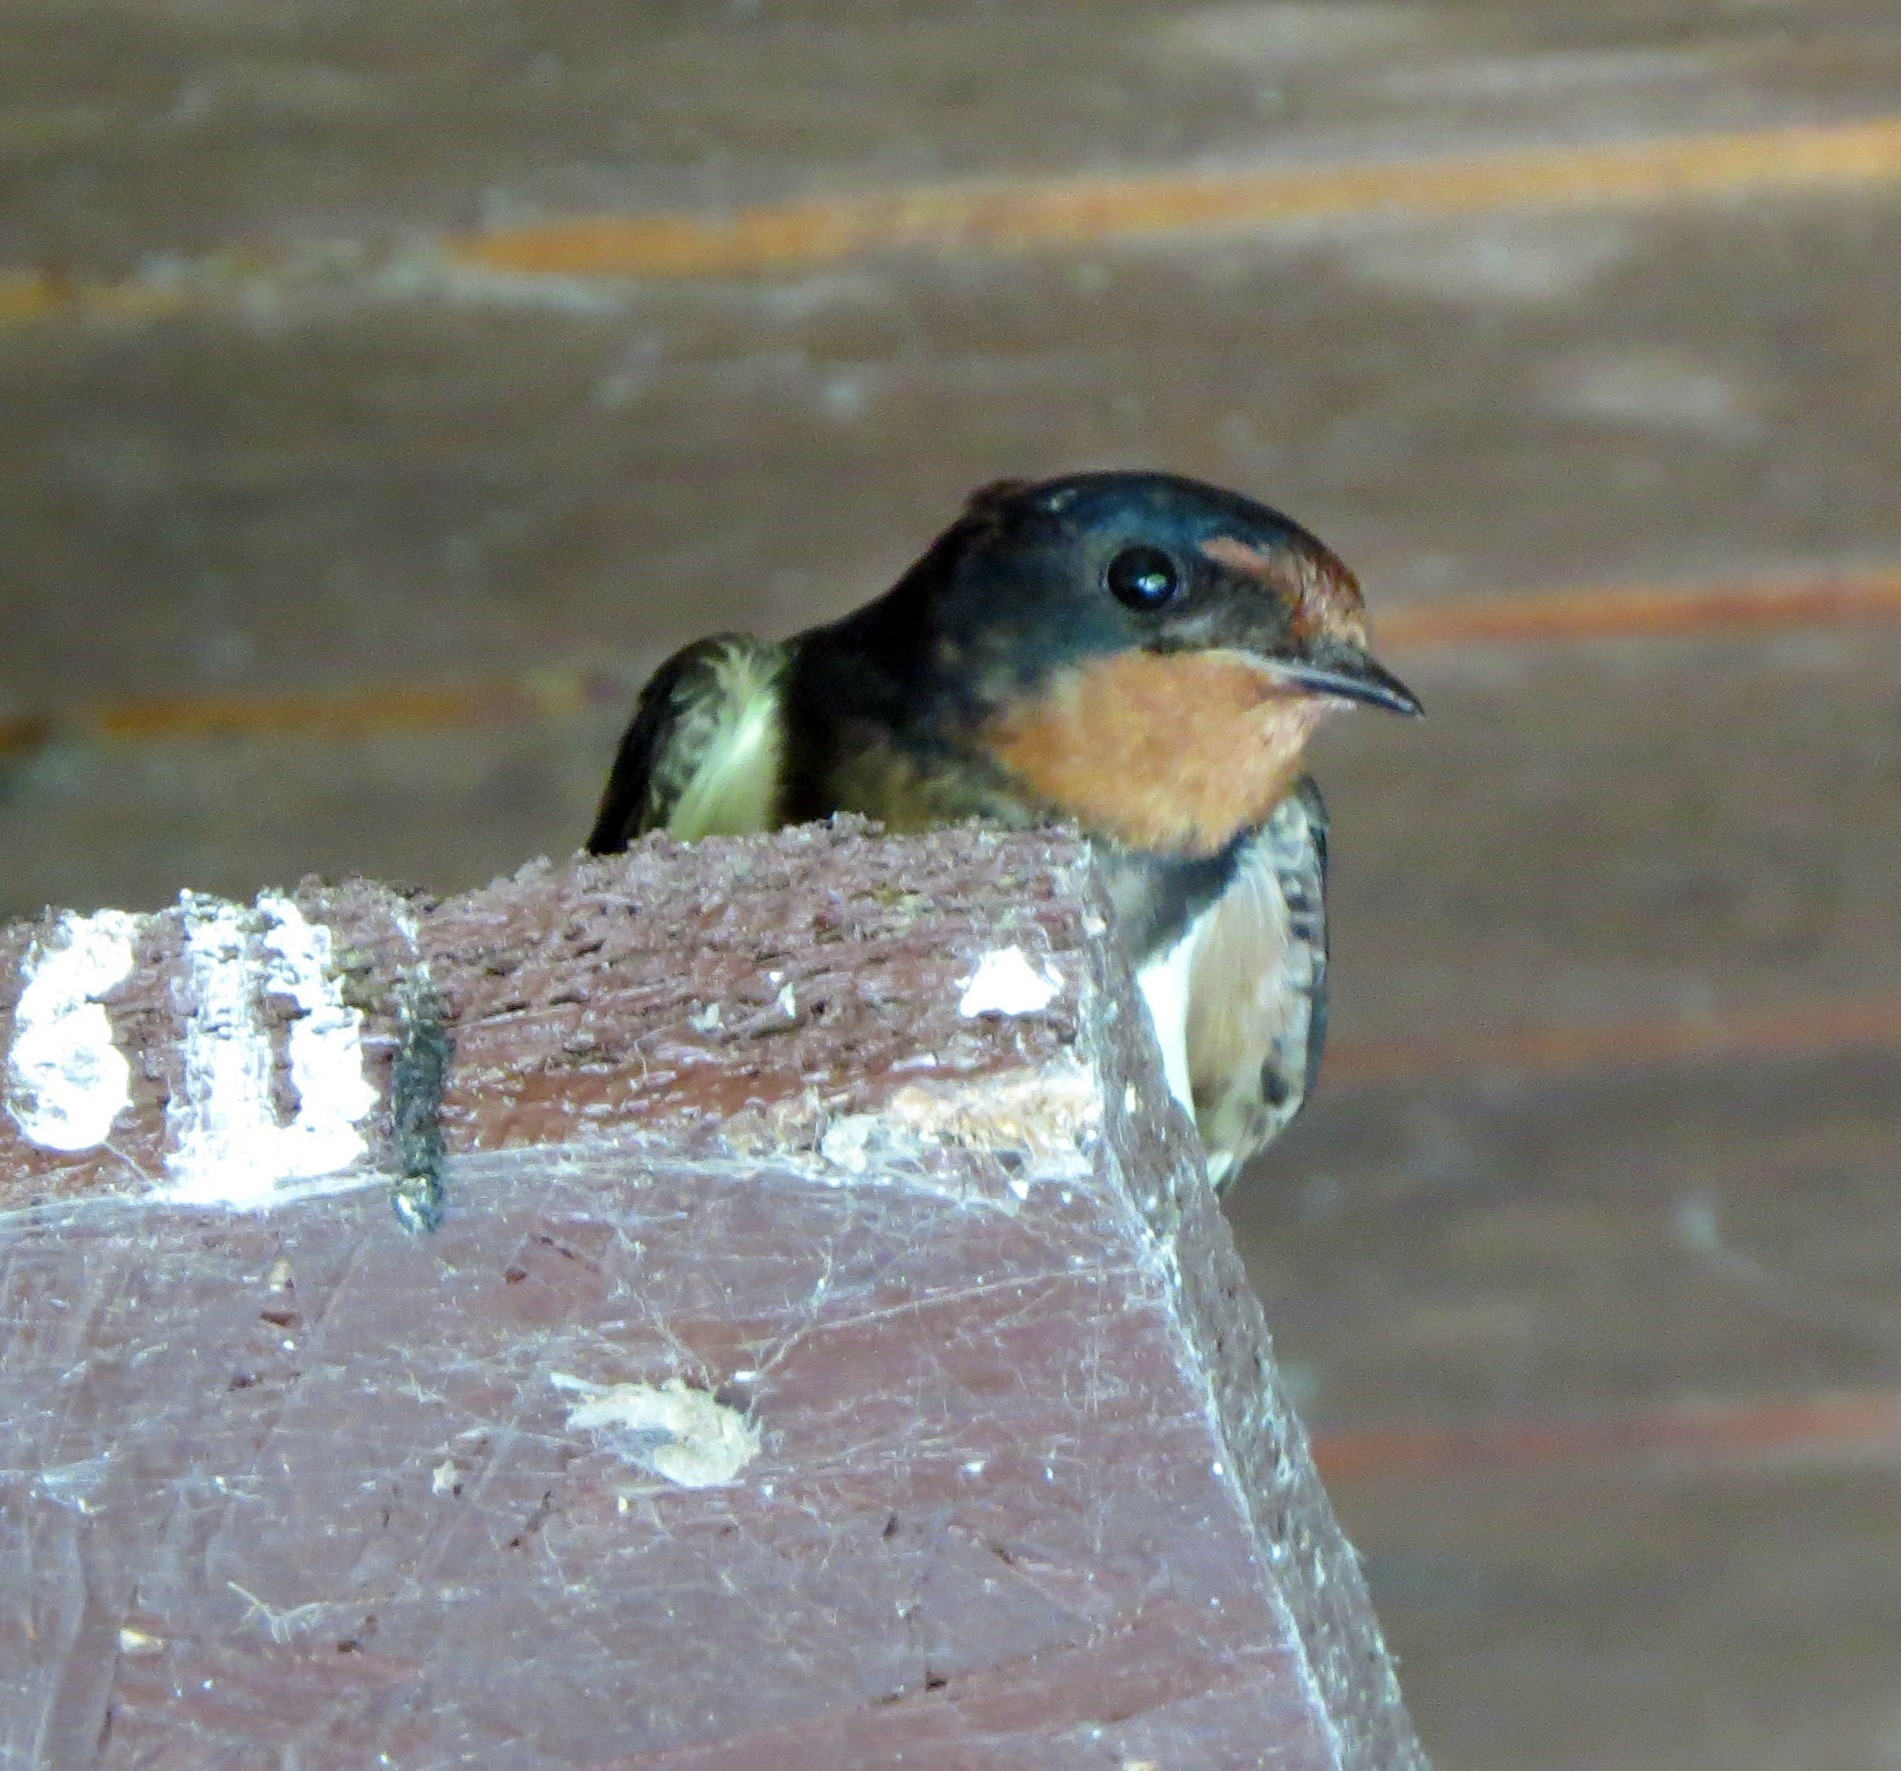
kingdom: Animalia
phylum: Chordata
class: Aves
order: Passeriformes
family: Hirundinidae
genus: Hirundo
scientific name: Hirundo rustica
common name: Barn swallow
